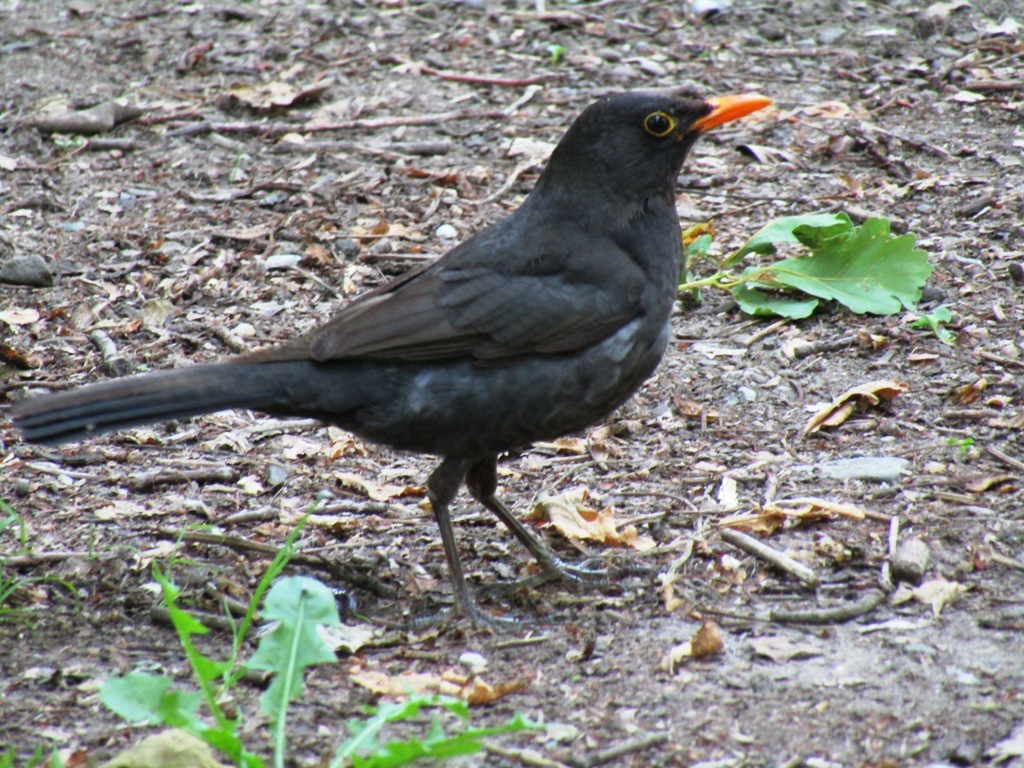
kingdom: Animalia
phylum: Chordata
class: Aves
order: Passeriformes
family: Turdidae
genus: Turdus
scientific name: Turdus merula
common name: Common blackbird
